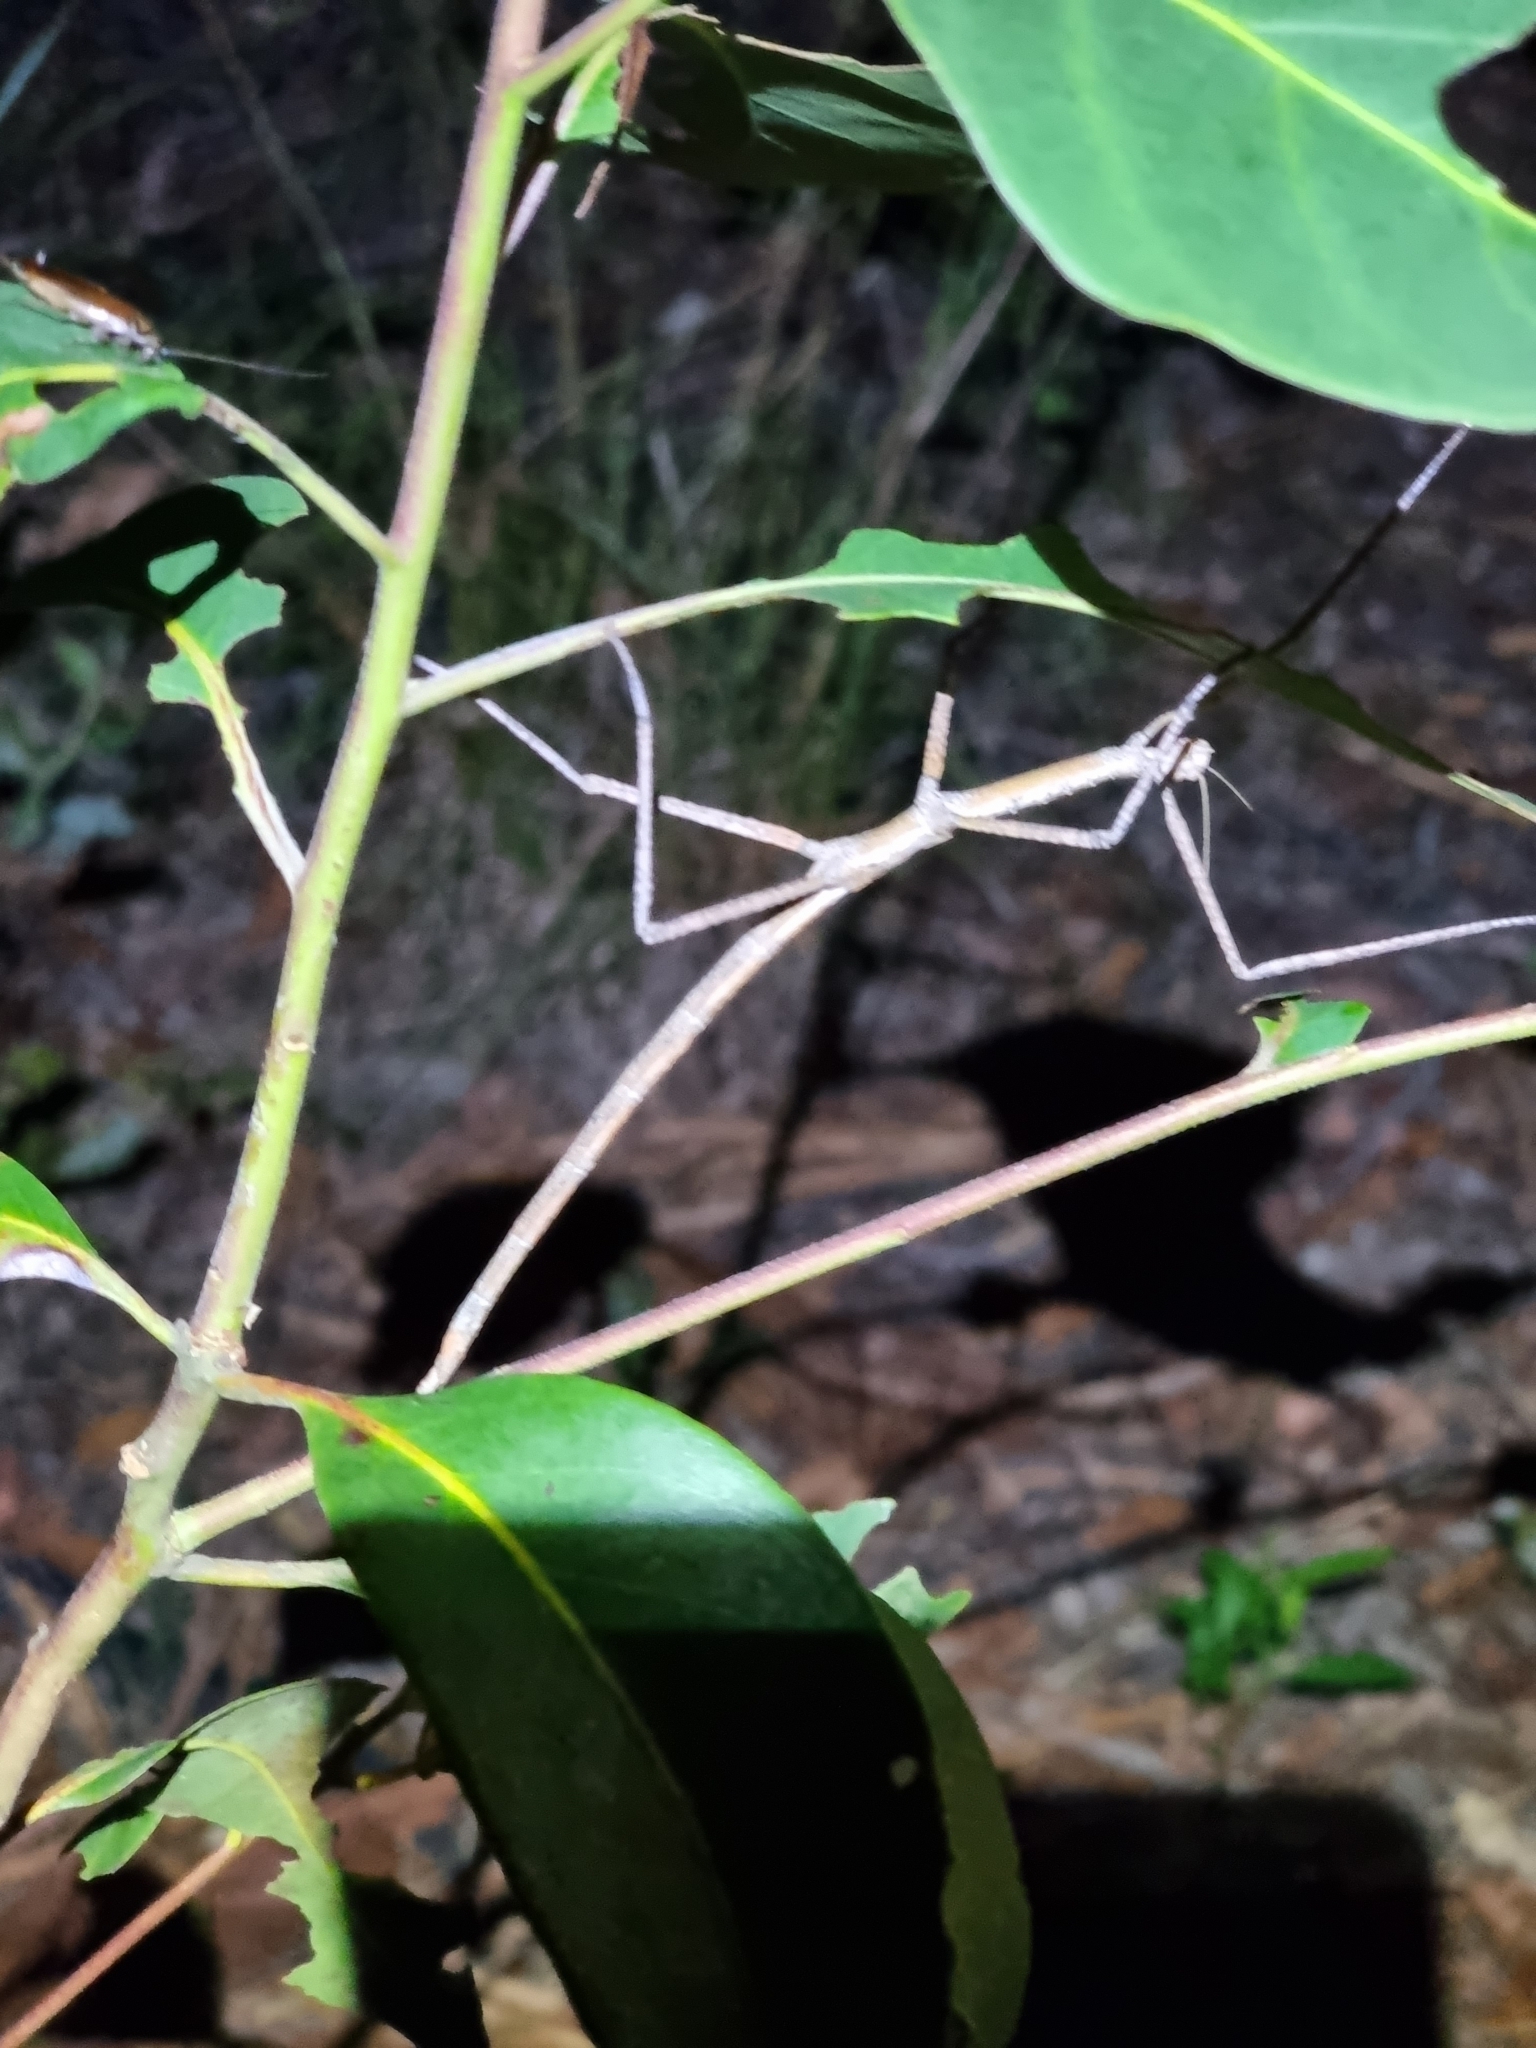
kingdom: Animalia
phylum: Arthropoda
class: Insecta
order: Phasmida
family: Phasmatidae
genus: Anchiale
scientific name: Anchiale austrotessulata
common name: Tessellated stick-insect
